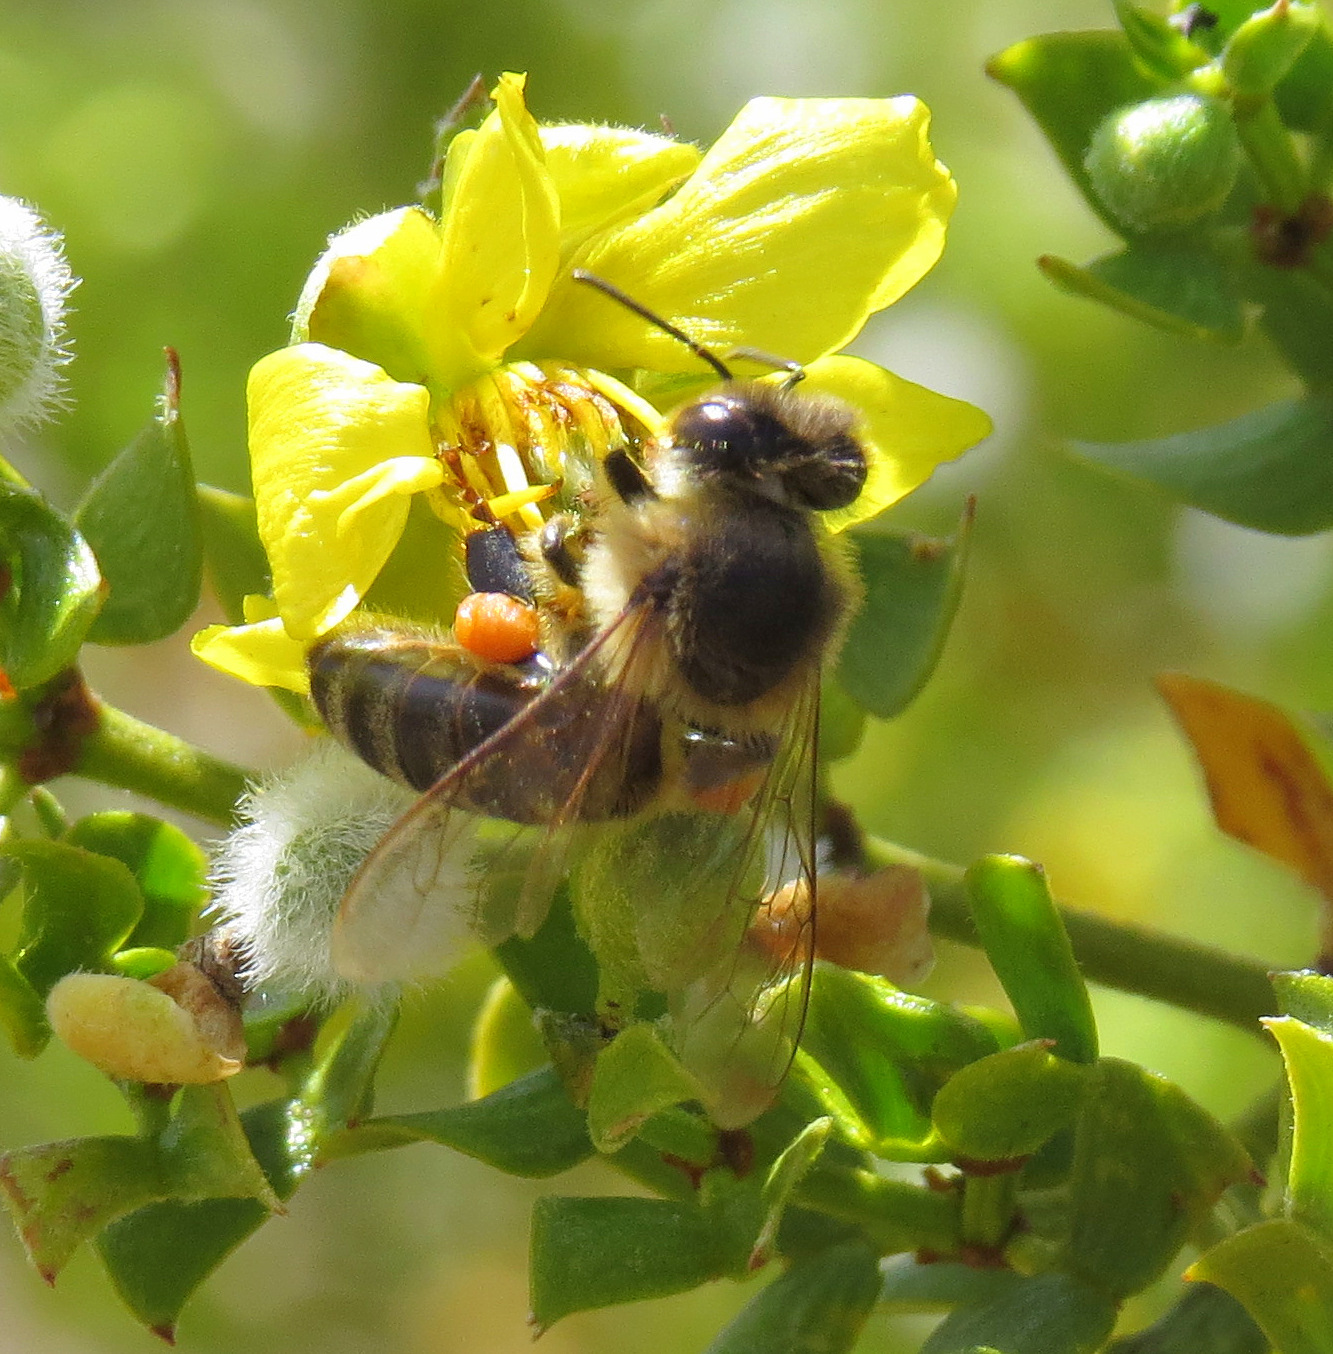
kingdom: Animalia
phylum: Arthropoda
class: Insecta
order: Hymenoptera
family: Apidae
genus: Apis
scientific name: Apis mellifera
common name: Honey bee
